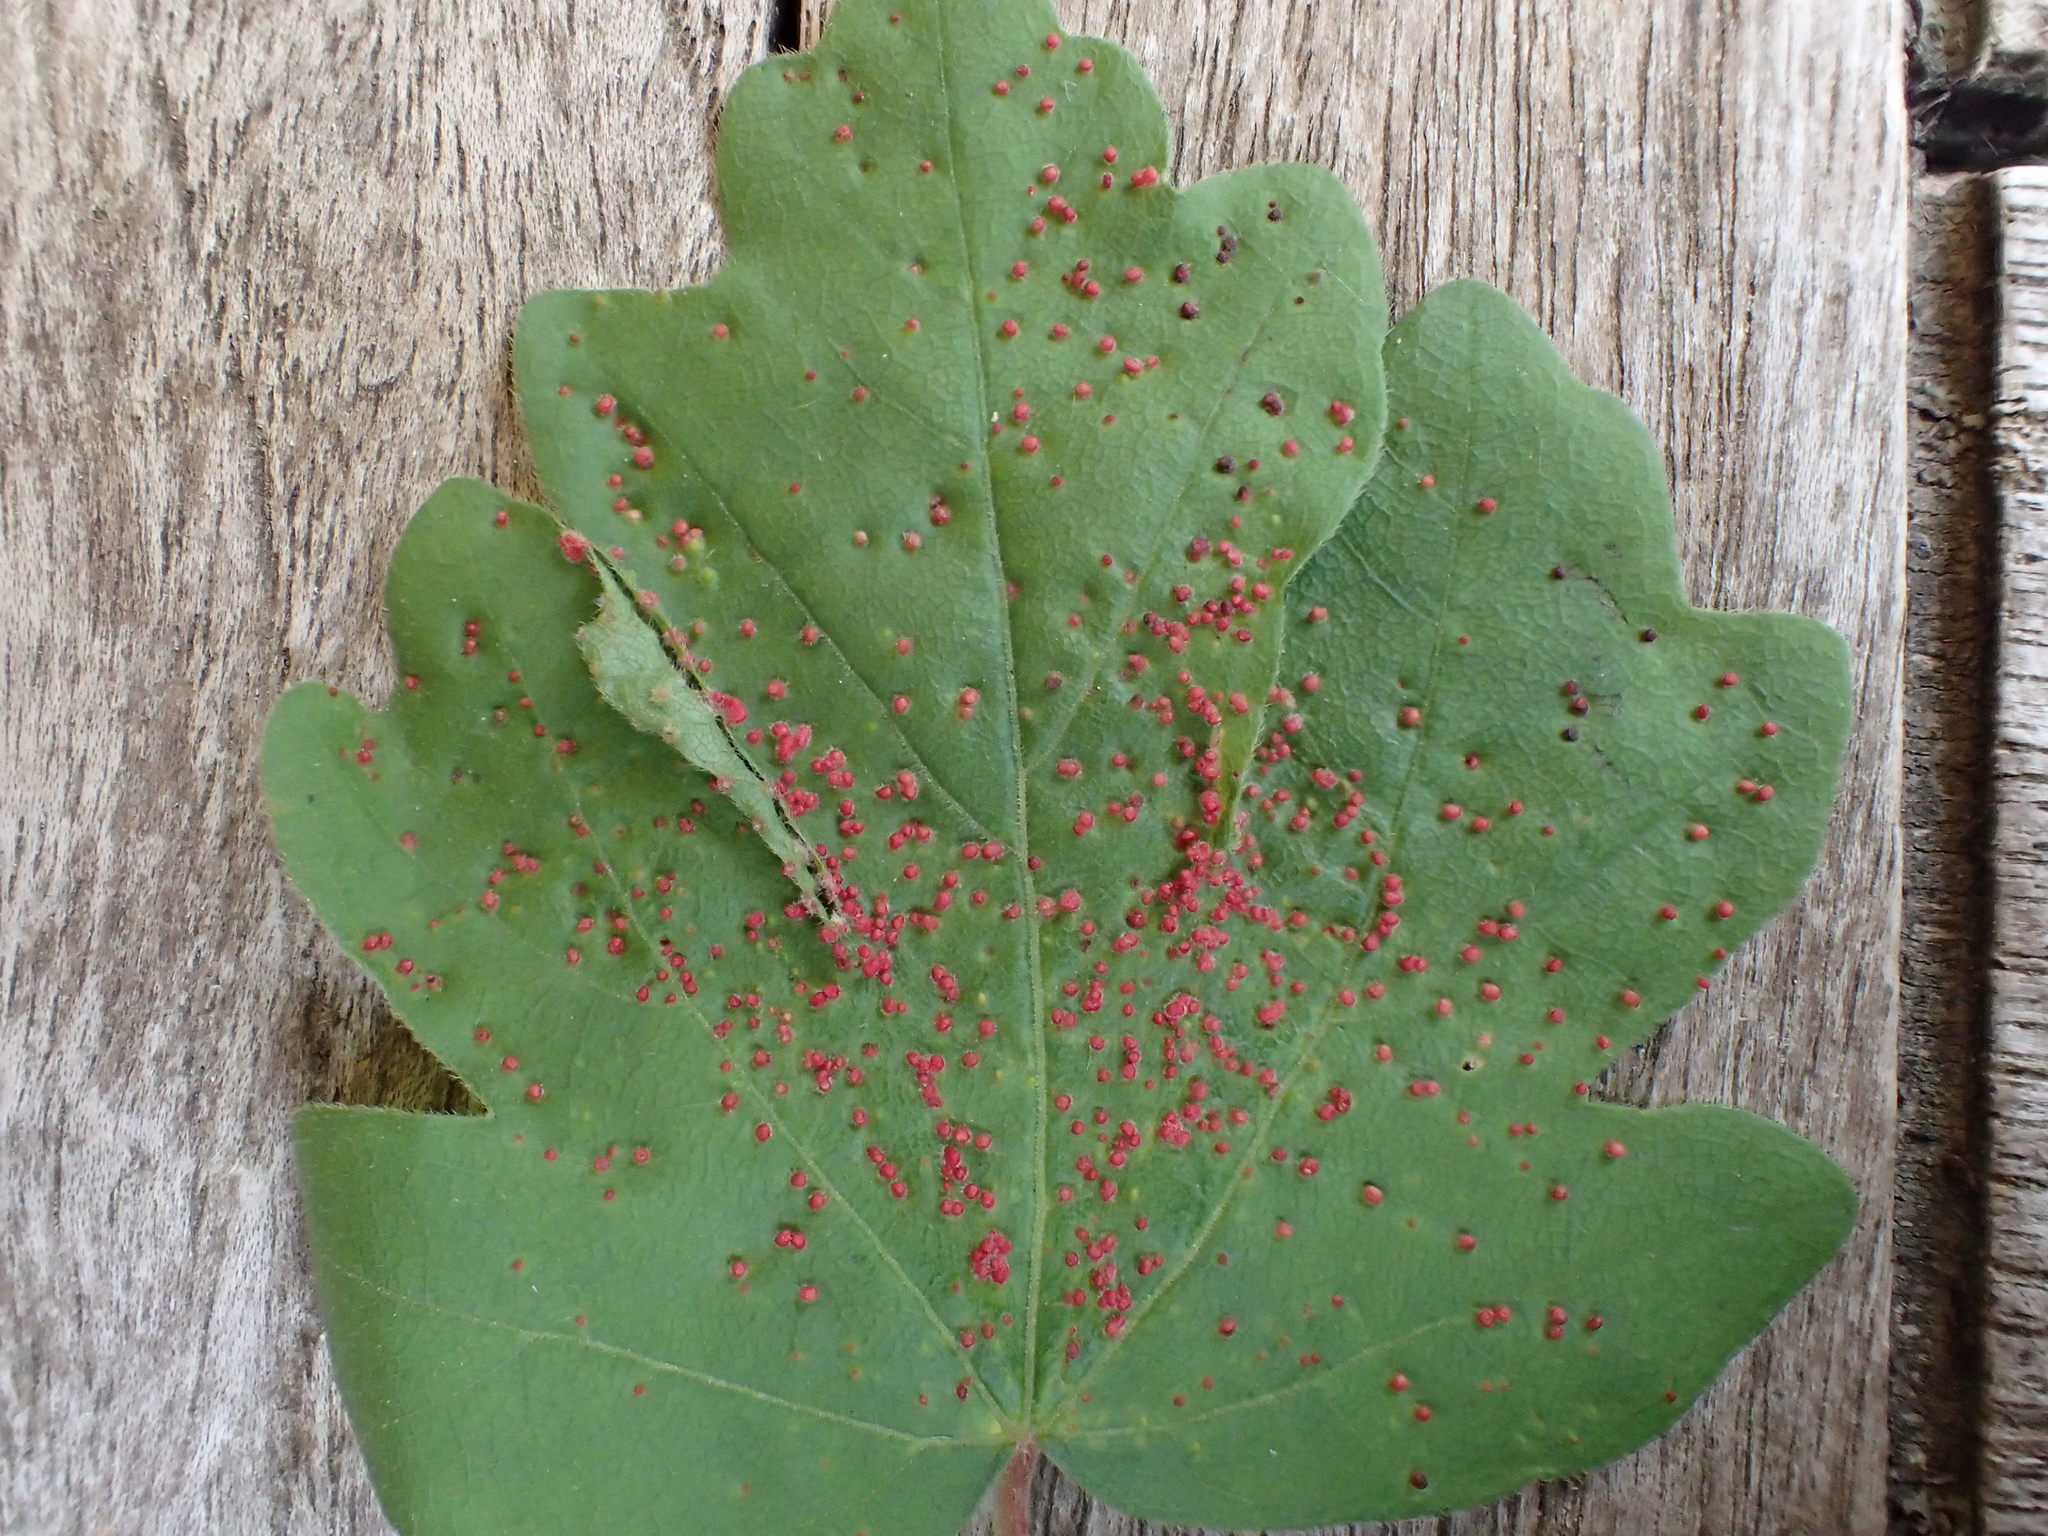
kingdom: Animalia
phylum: Arthropoda
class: Arachnida
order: Trombidiformes
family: Eriophyidae
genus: Aceria
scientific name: Aceria myriadeum
